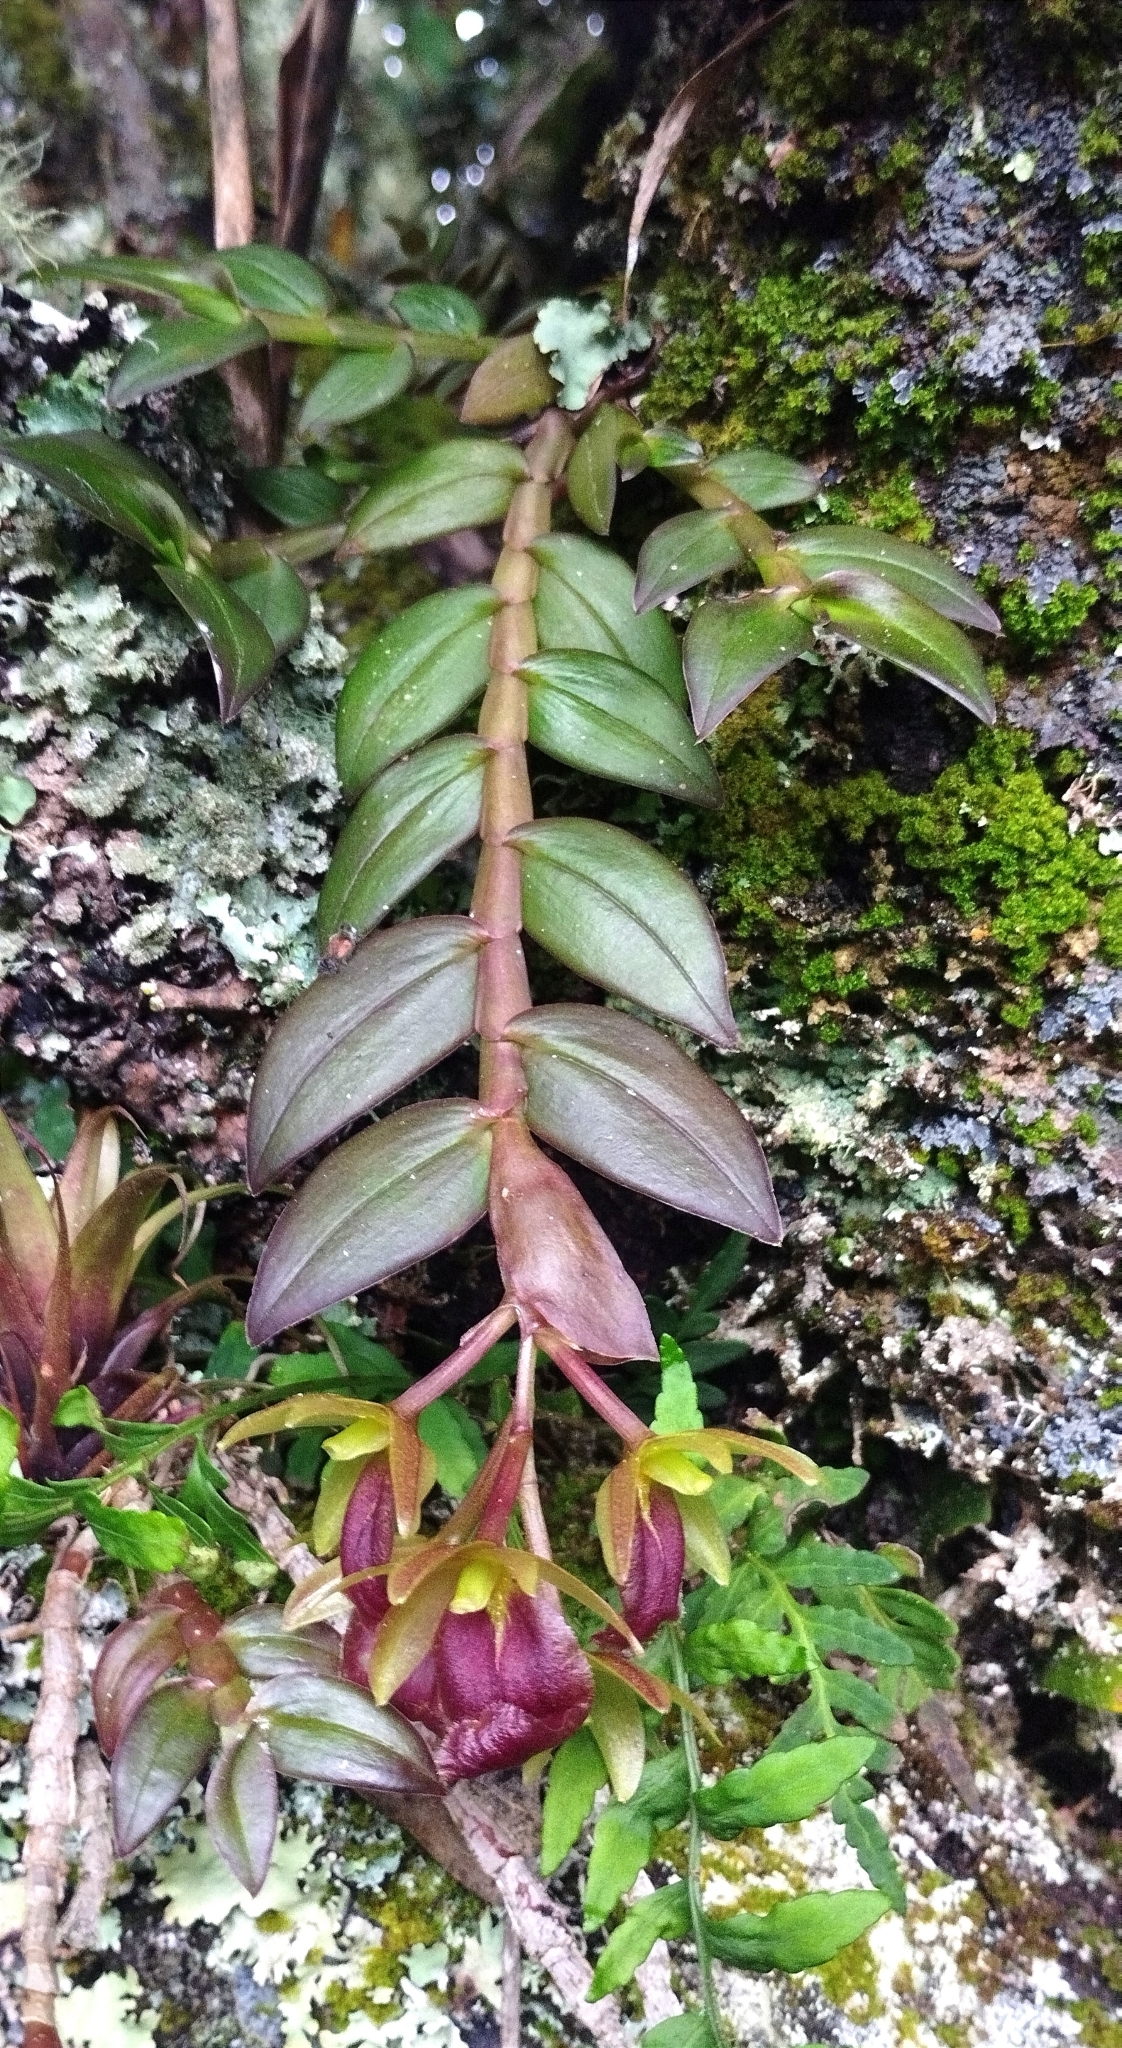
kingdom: Plantae
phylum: Tracheophyta
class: Liliopsida
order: Asparagales
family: Orchidaceae
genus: Epidendrum
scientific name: Epidendrum megalospathum
